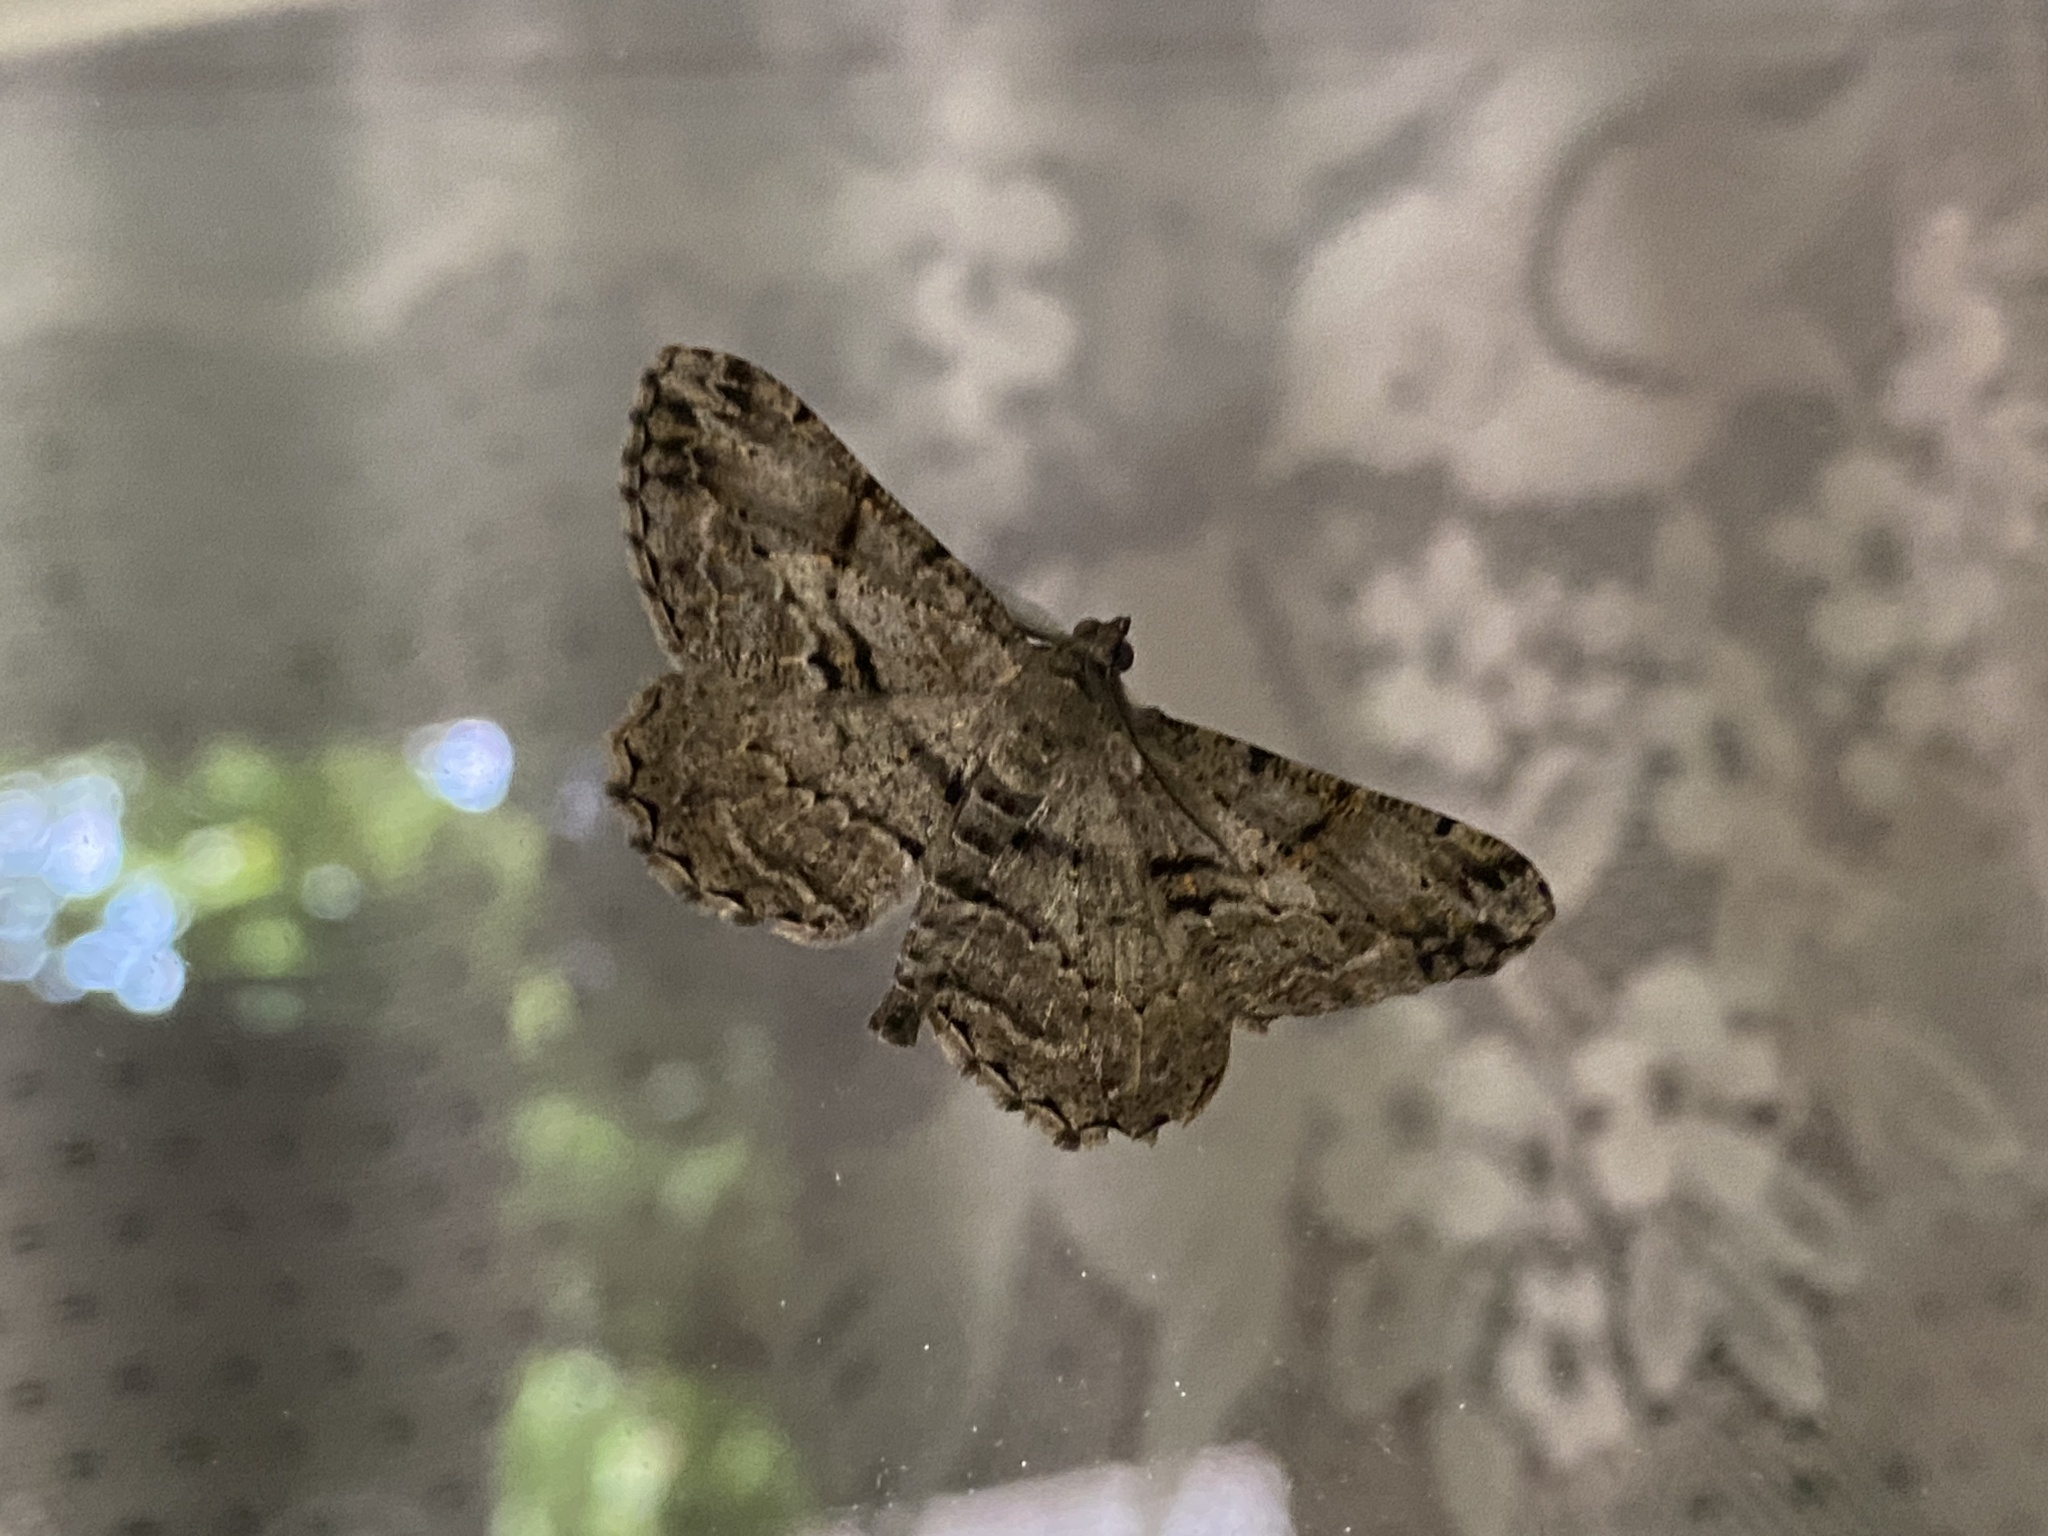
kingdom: Animalia
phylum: Arthropoda
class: Insecta
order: Lepidoptera
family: Geometridae
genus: Peribatodes
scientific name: Peribatodes rhomboidaria
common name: Willow beauty
